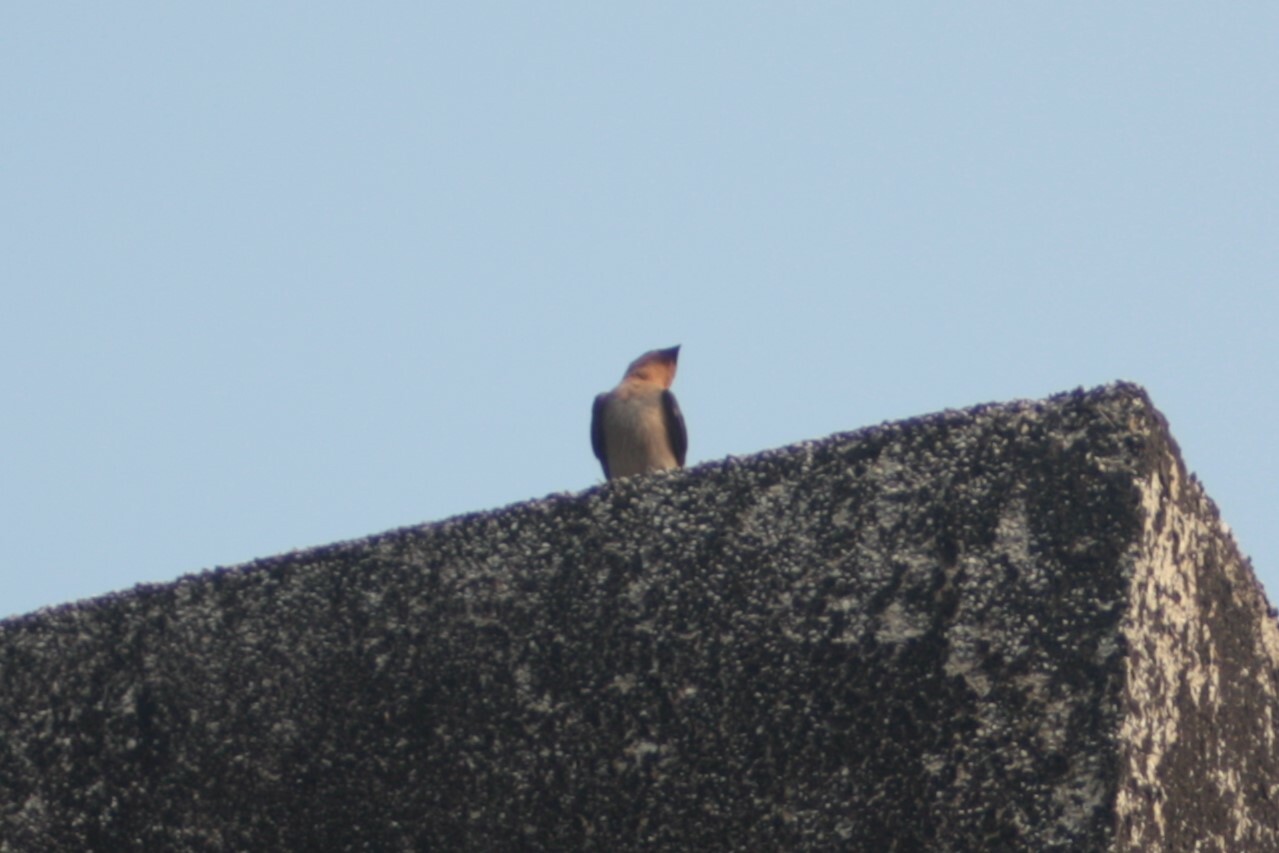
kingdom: Animalia
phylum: Chordata
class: Aves
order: Passeriformes
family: Hirundinidae
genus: Hirundo
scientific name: Hirundo tahitica
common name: Pacific swallow
